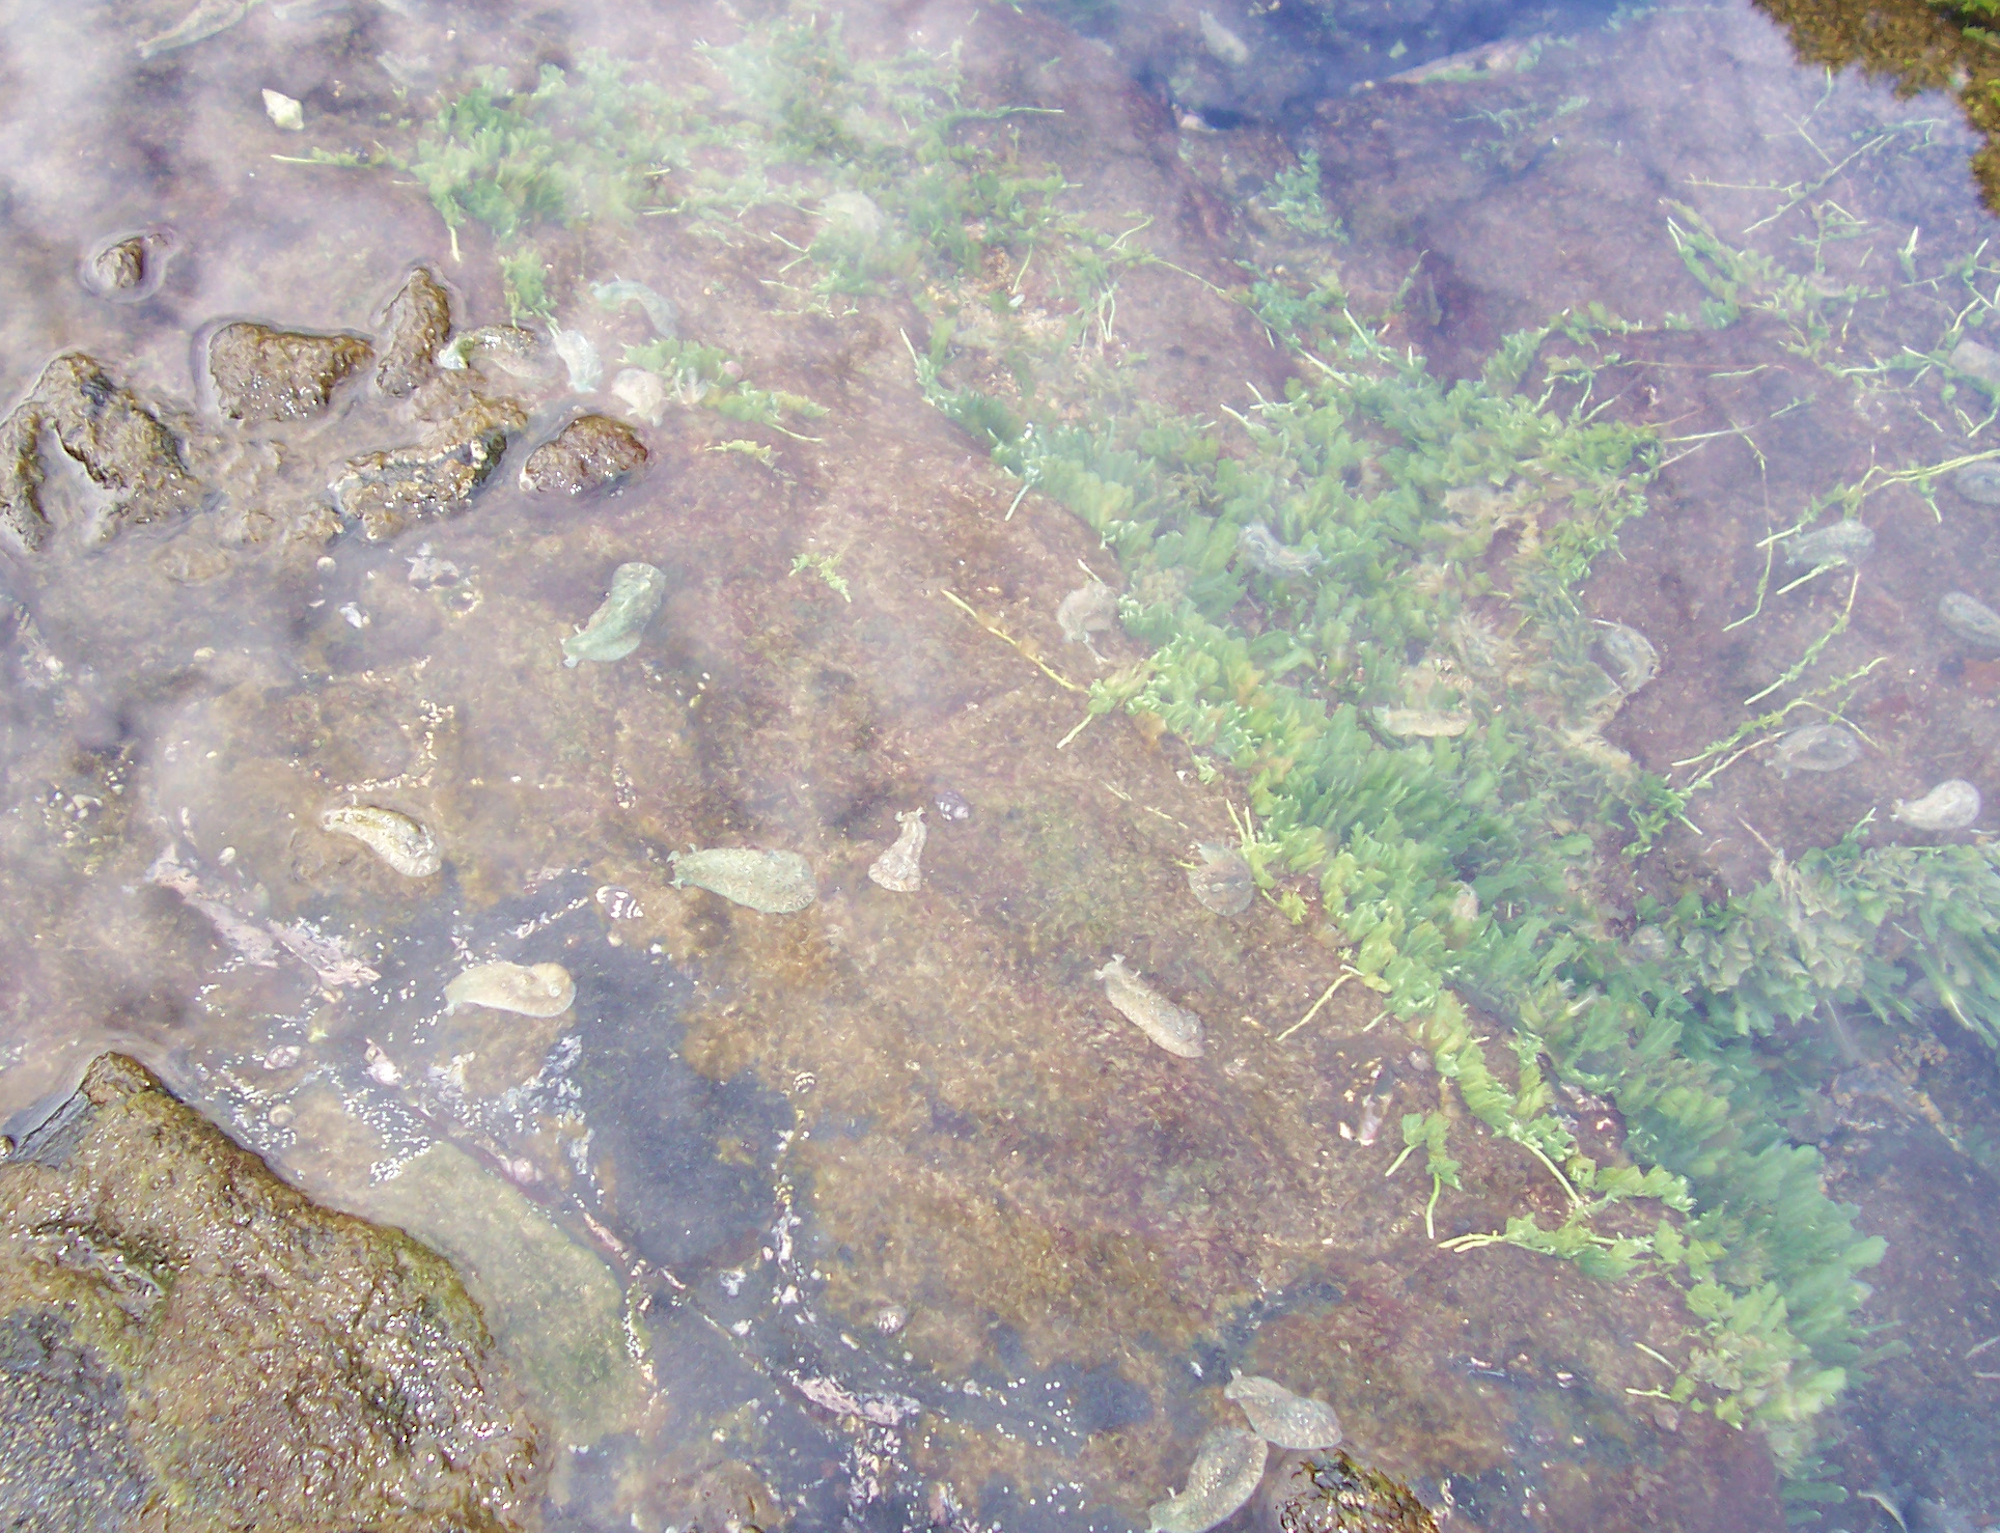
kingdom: Plantae
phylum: Chlorophyta
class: Ulvophyceae
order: Bryopsidales
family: Caulerpaceae
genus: Caulerpa
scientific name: Caulerpa sertularioides
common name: Green feather algae
